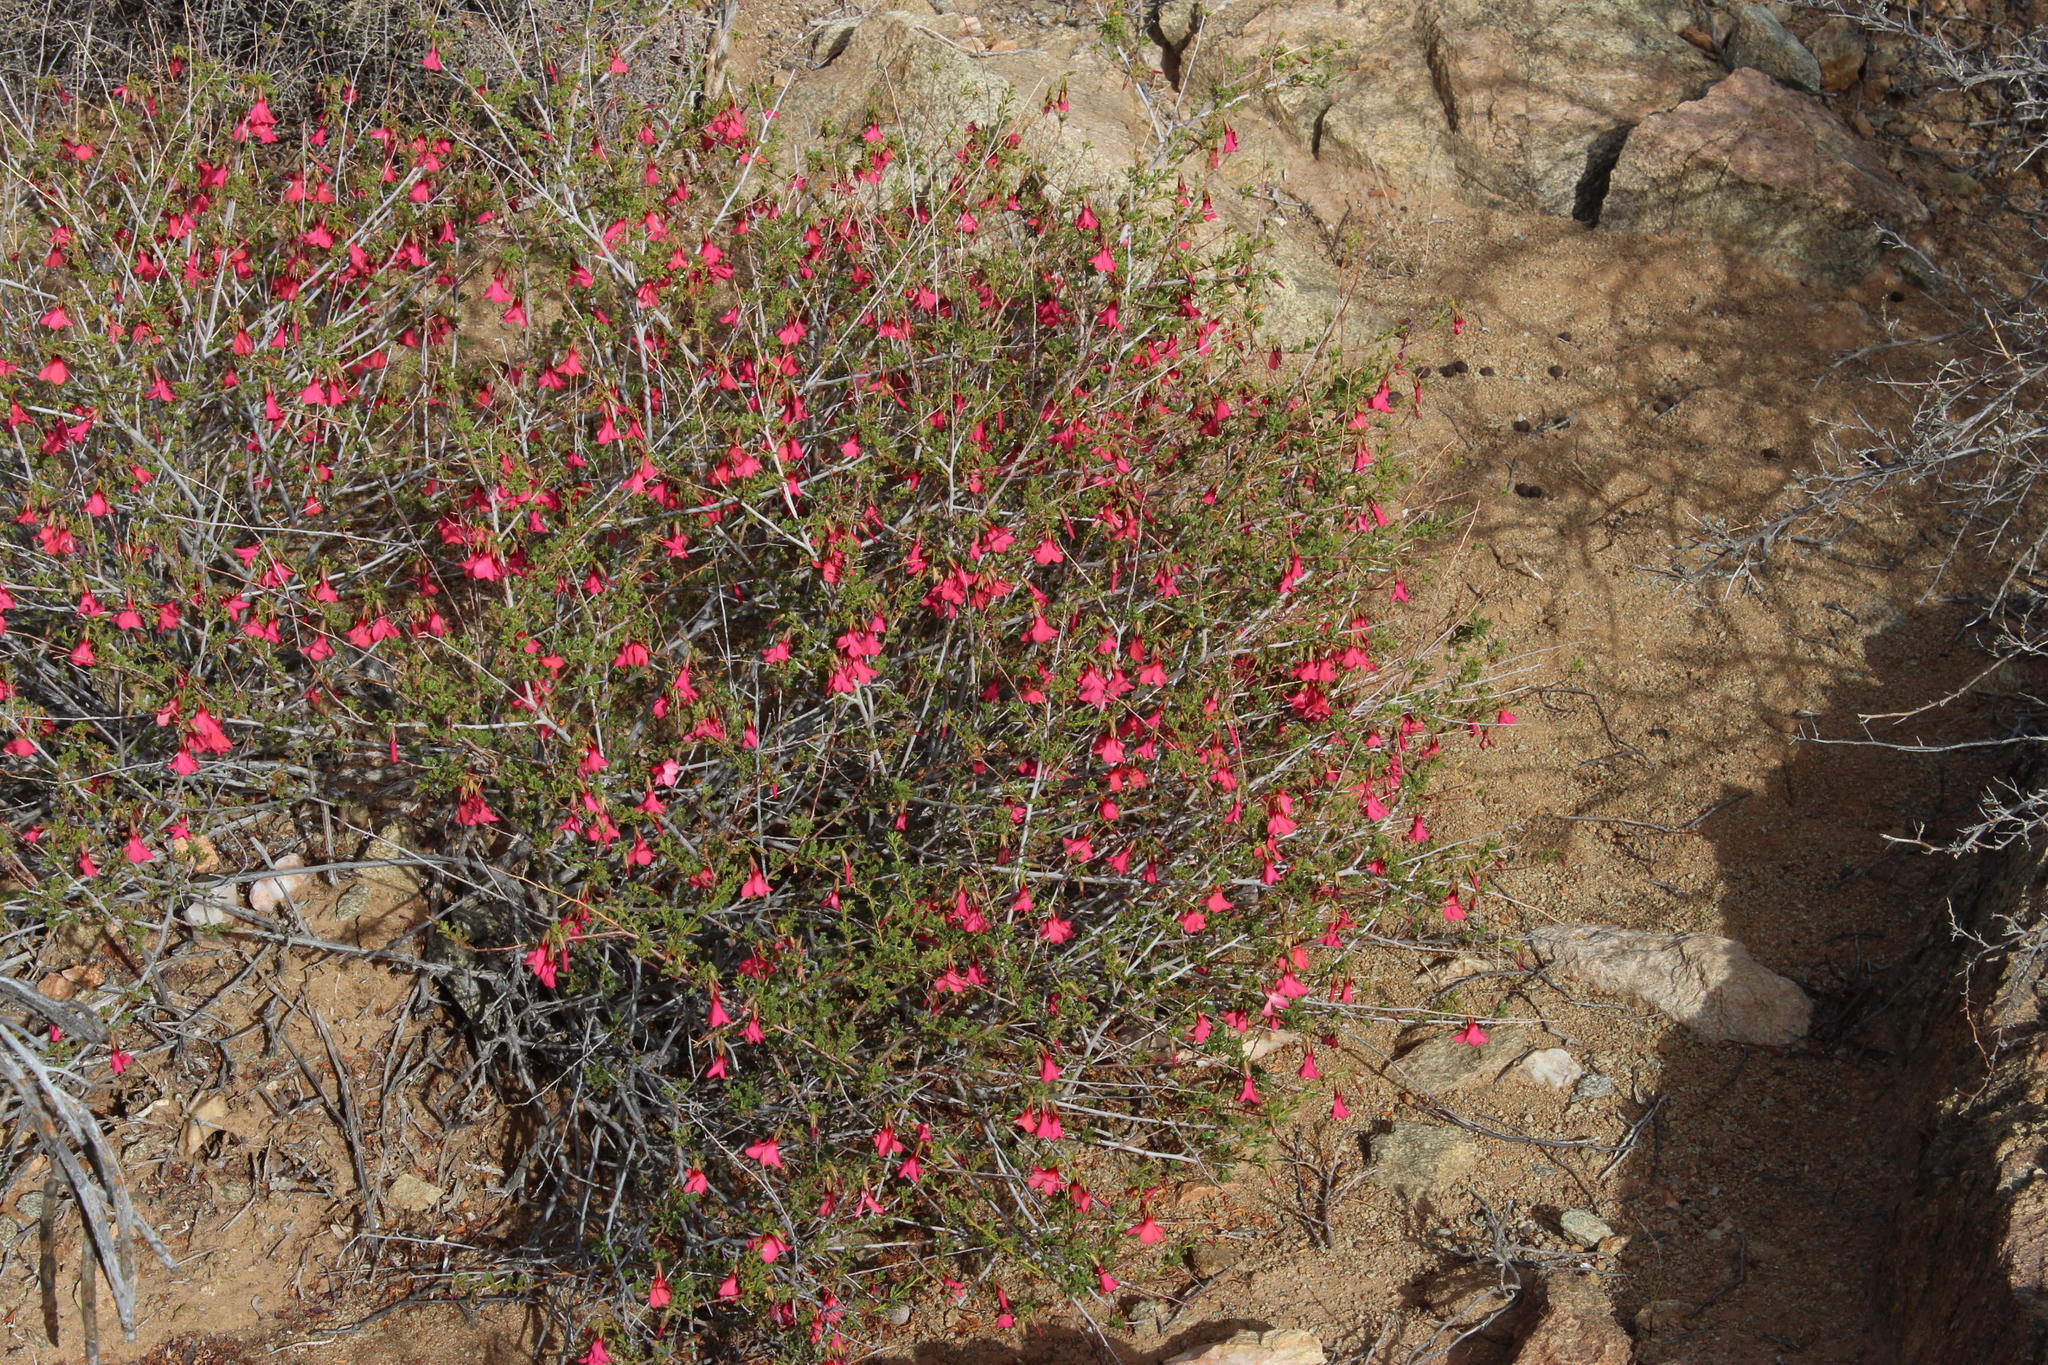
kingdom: Plantae
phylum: Tracheophyta
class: Magnoliopsida
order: Malvales
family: Malvaceae
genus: Hermannia
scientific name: Hermannia stricta
